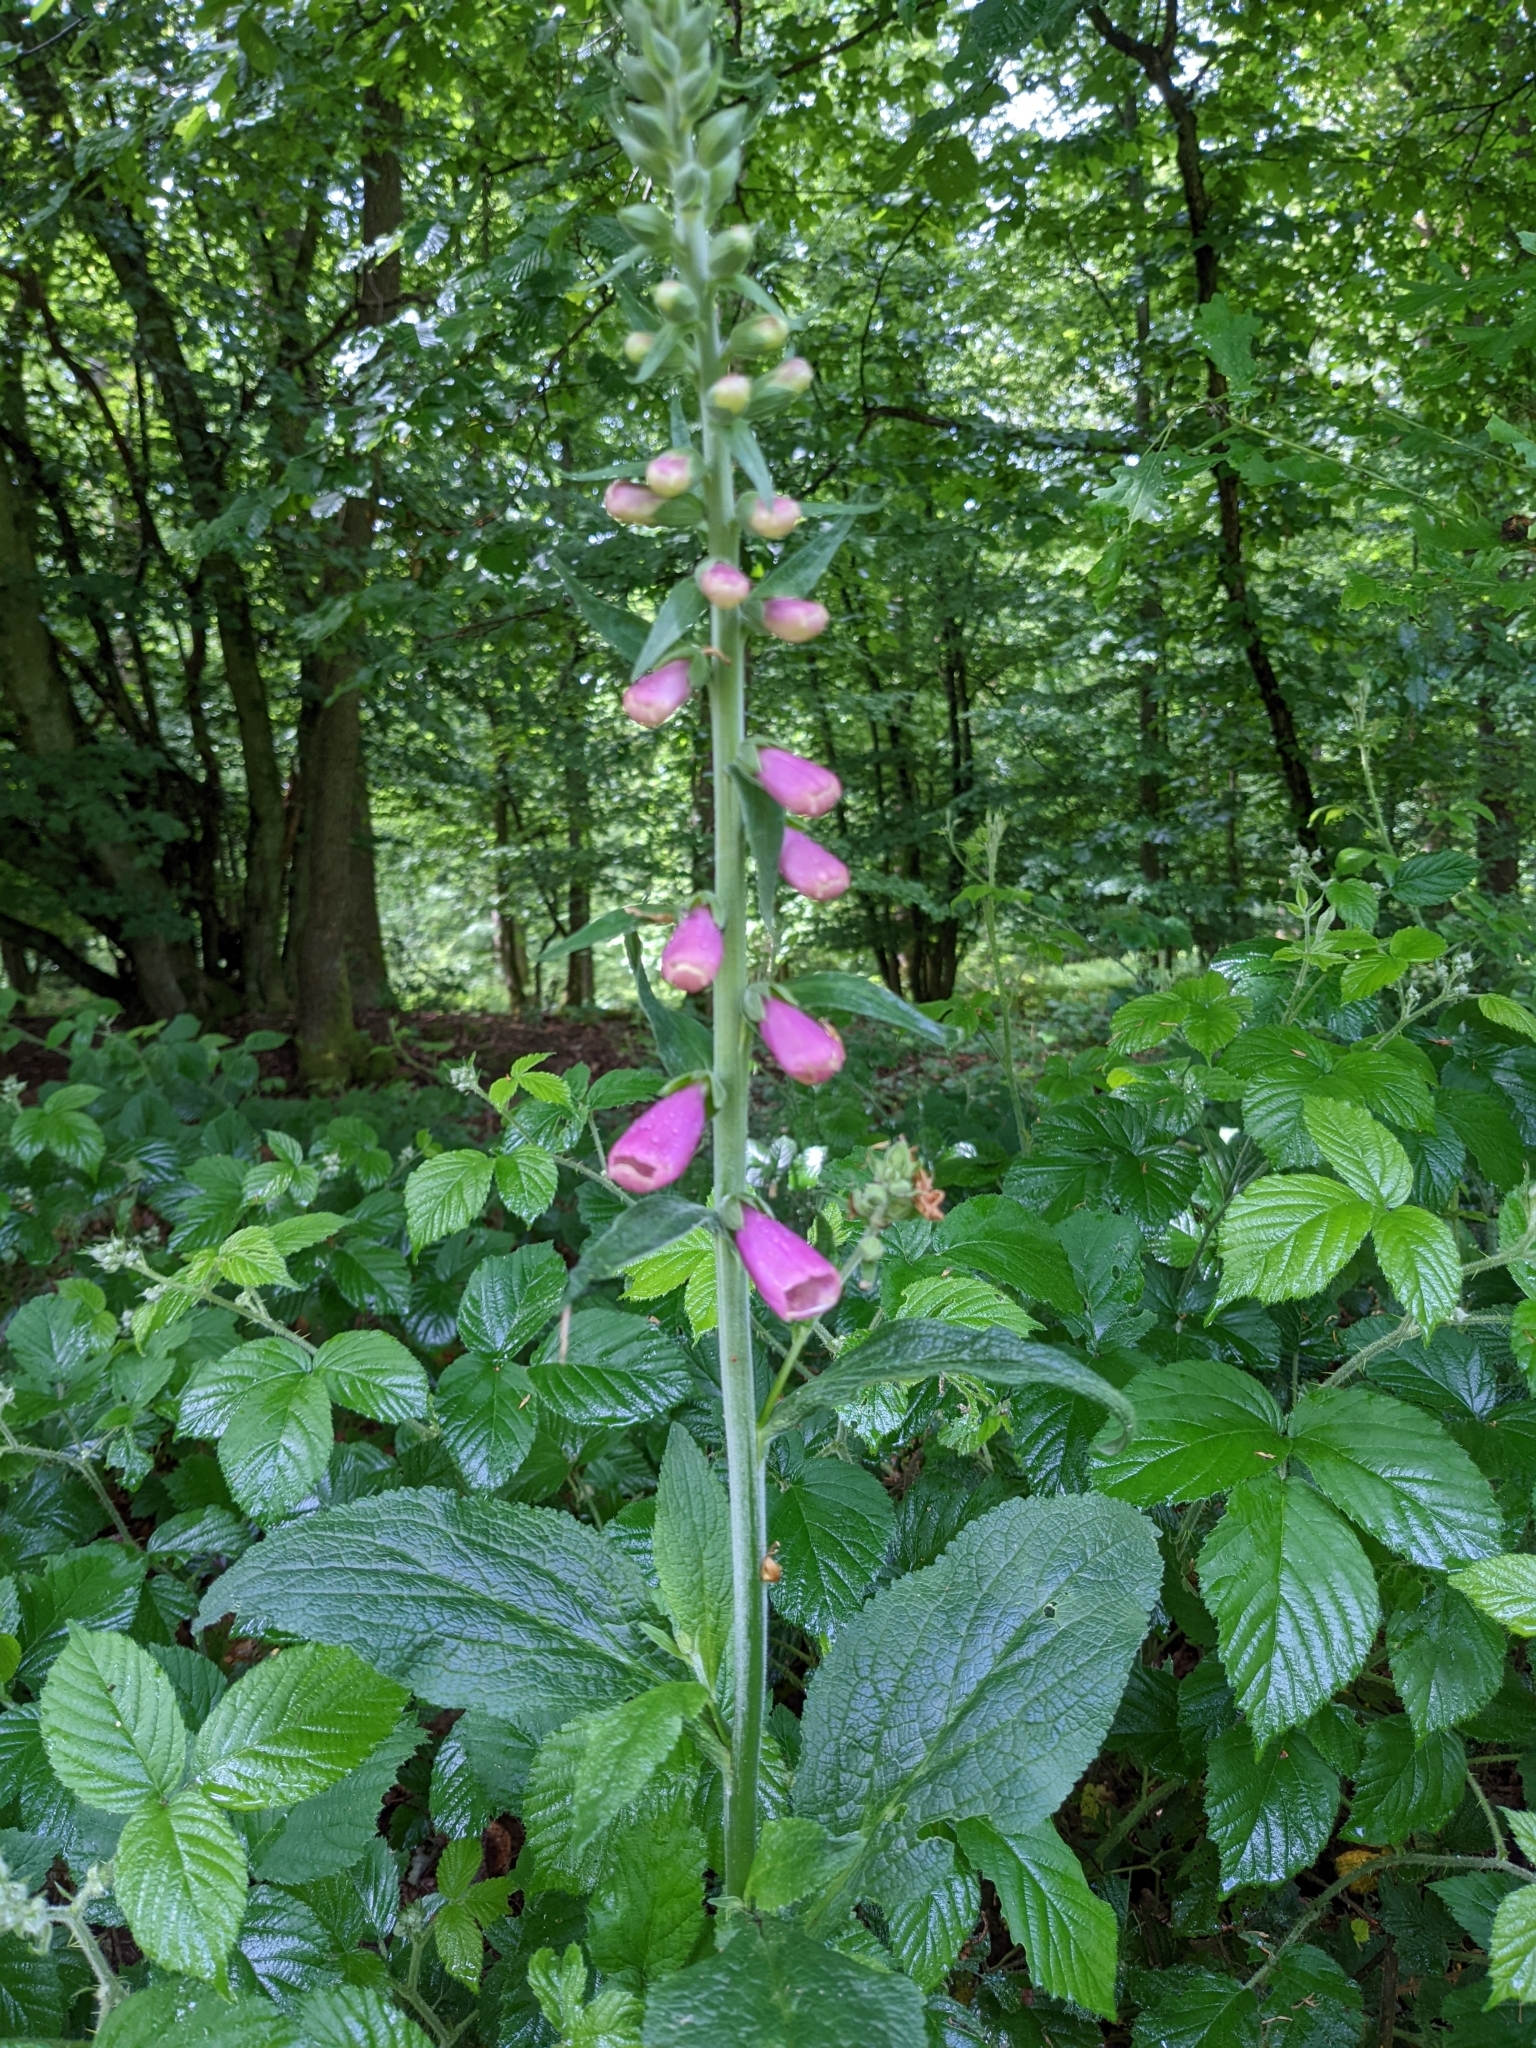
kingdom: Plantae
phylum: Tracheophyta
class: Magnoliopsida
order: Lamiales
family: Plantaginaceae
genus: Digitalis
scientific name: Digitalis purpurea
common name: Foxglove
